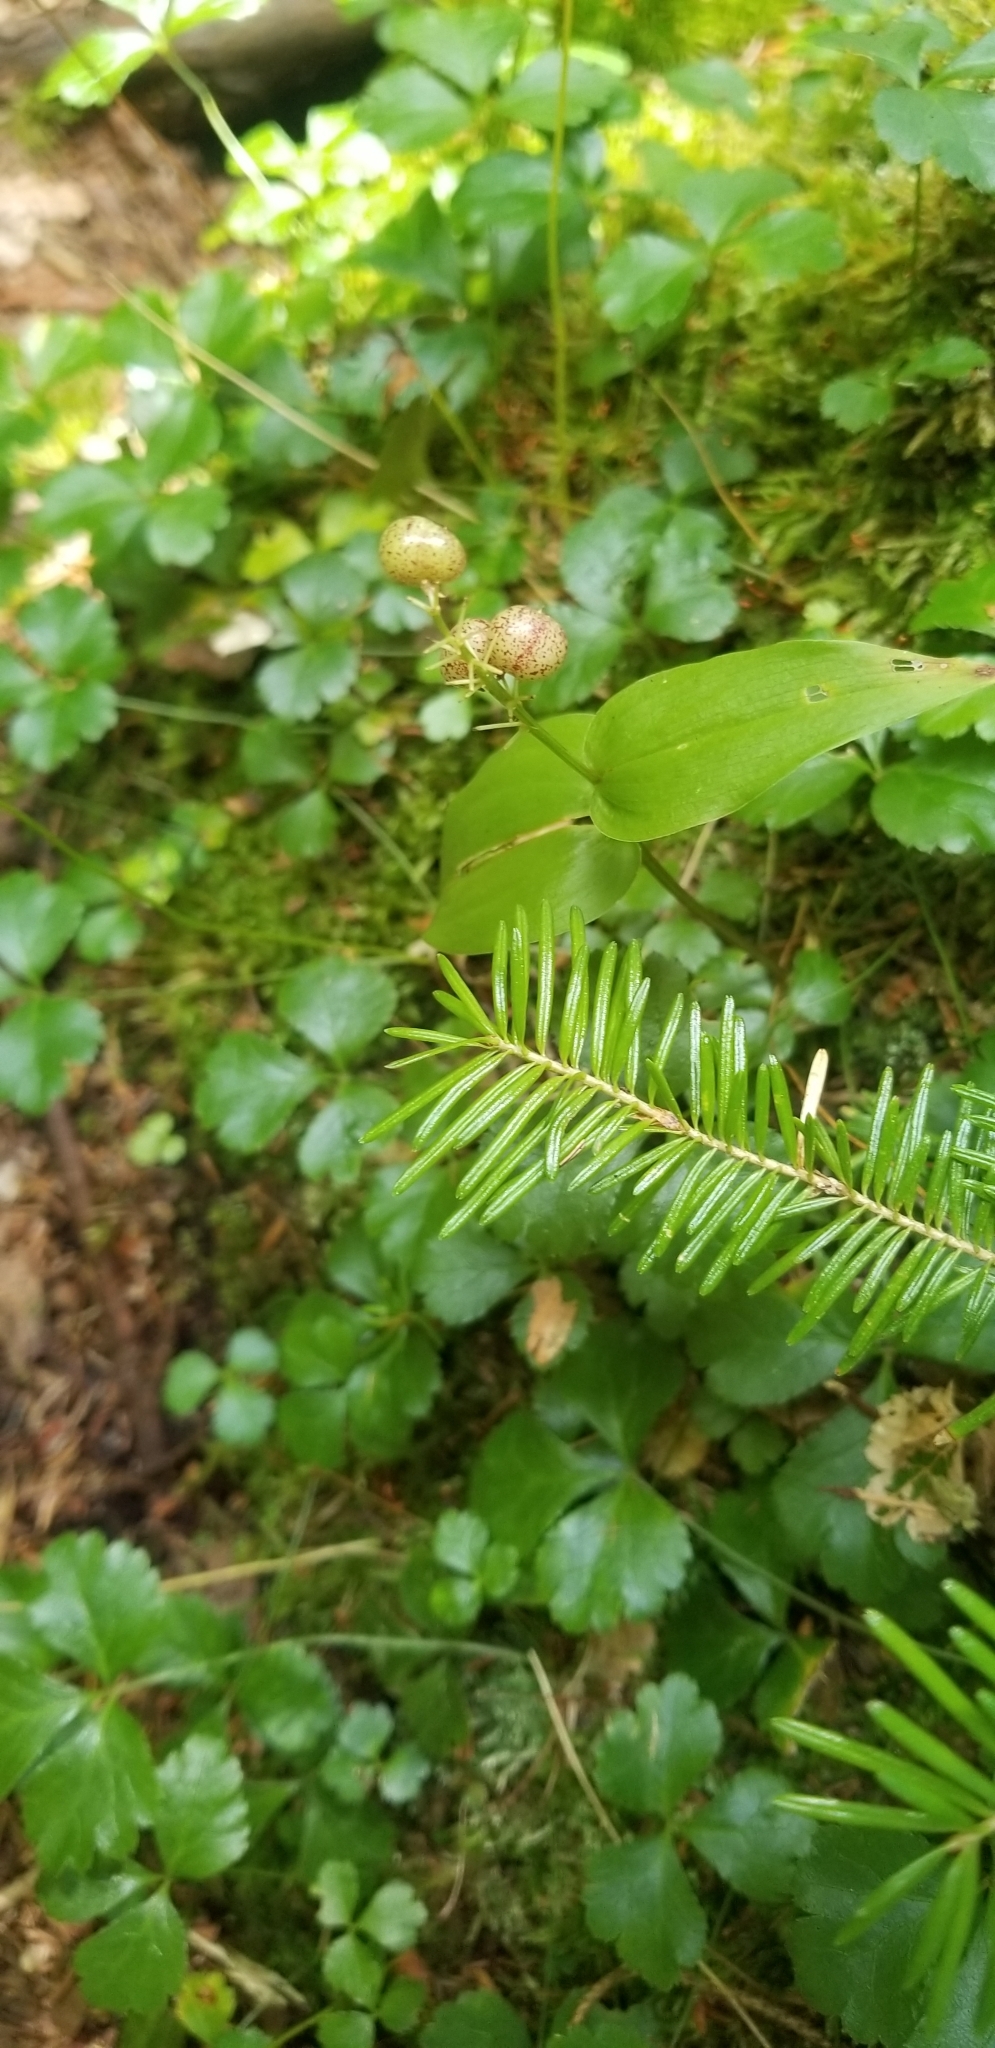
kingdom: Plantae
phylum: Tracheophyta
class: Liliopsida
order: Asparagales
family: Asparagaceae
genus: Maianthemum
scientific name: Maianthemum canadense
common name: False lily-of-the-valley
